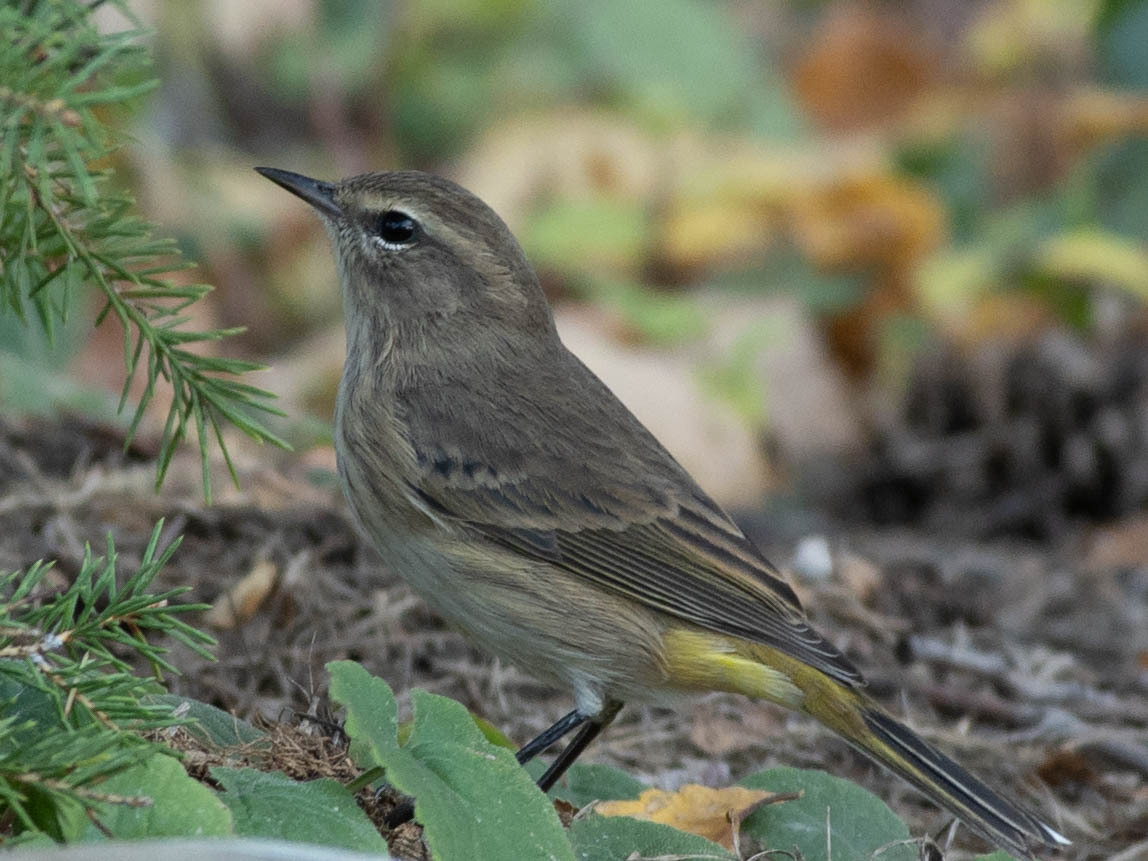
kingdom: Animalia
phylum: Chordata
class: Aves
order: Passeriformes
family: Parulidae
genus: Setophaga
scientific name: Setophaga palmarum
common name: Palm warbler
